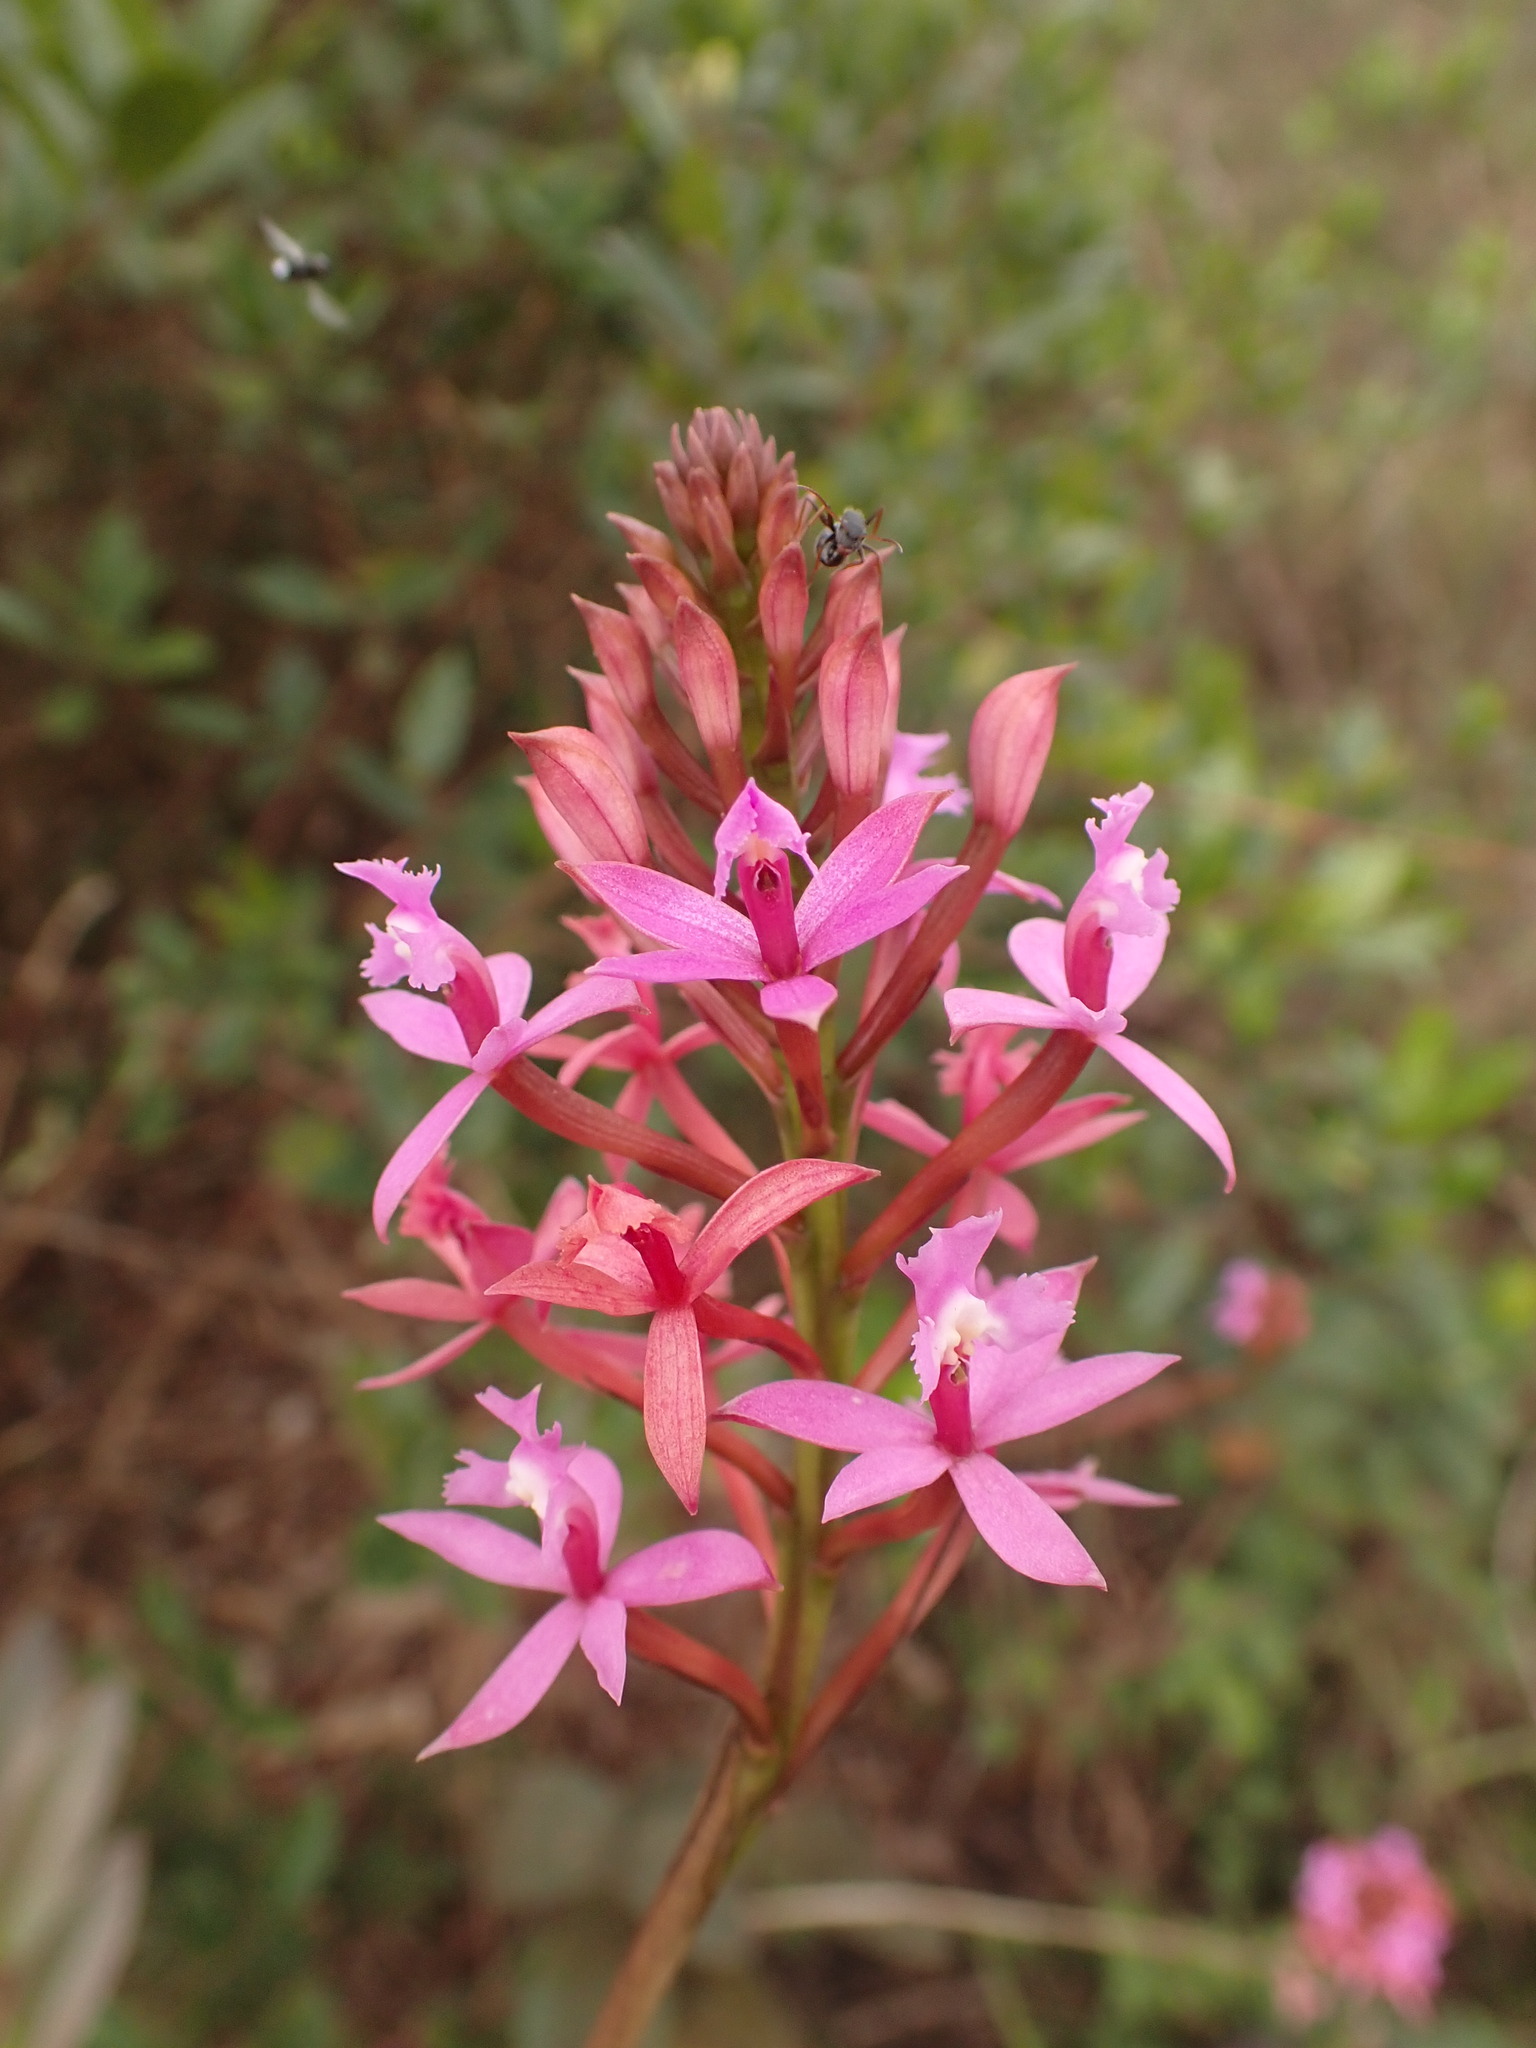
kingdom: Plantae
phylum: Tracheophyta
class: Liliopsida
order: Asparagales
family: Orchidaceae
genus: Epidendrum
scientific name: Epidendrum denticulatum
